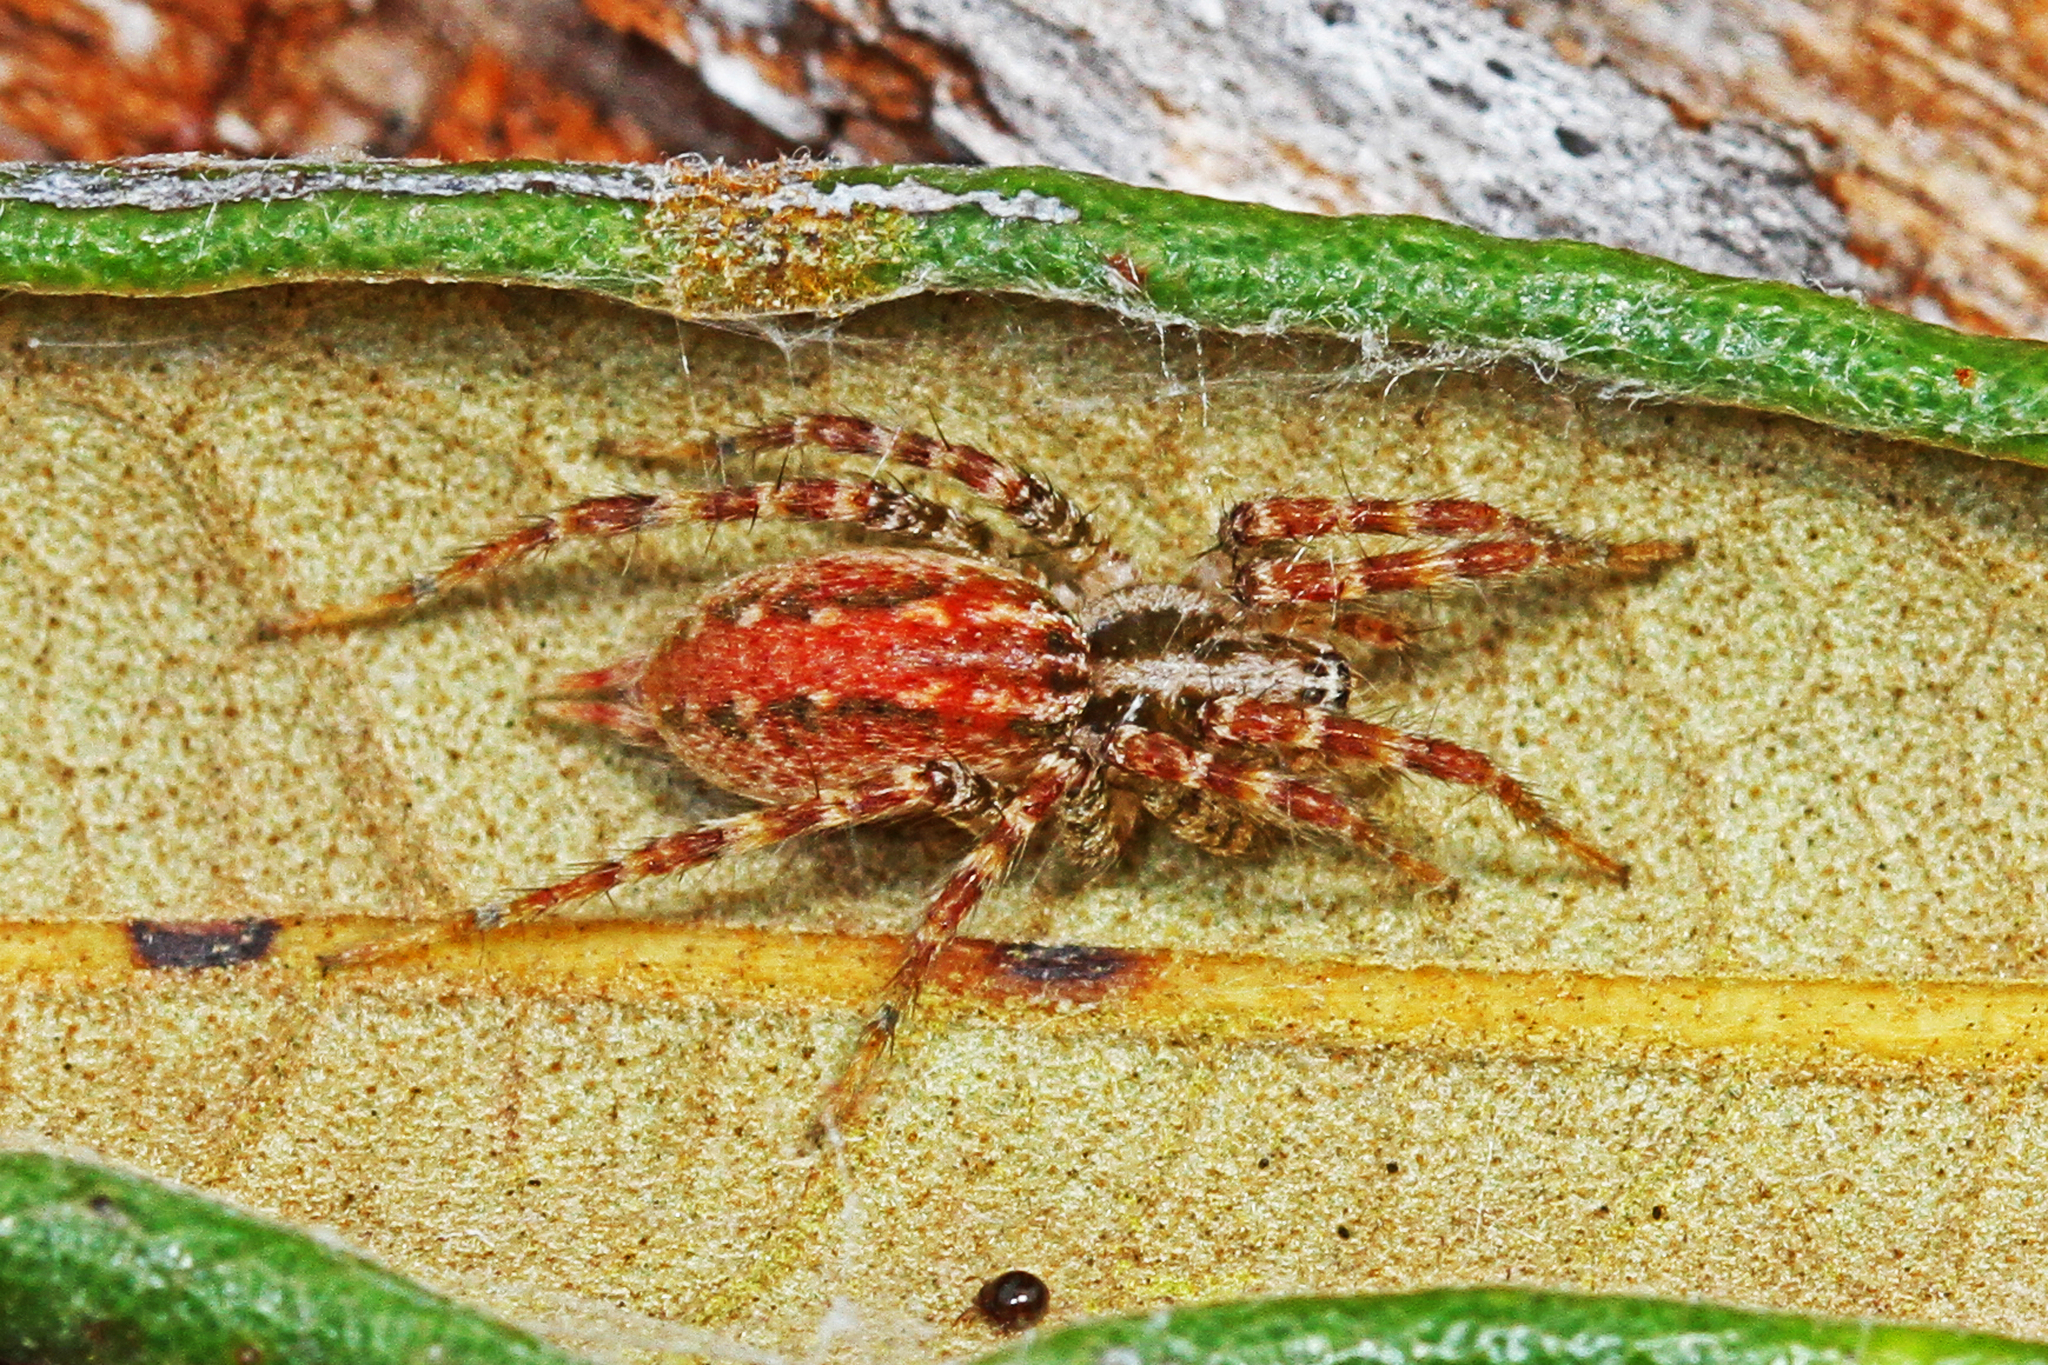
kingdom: Animalia
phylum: Arthropoda
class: Arachnida
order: Araneae
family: Agelenidae
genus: Barronopsis
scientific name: Barronopsis
